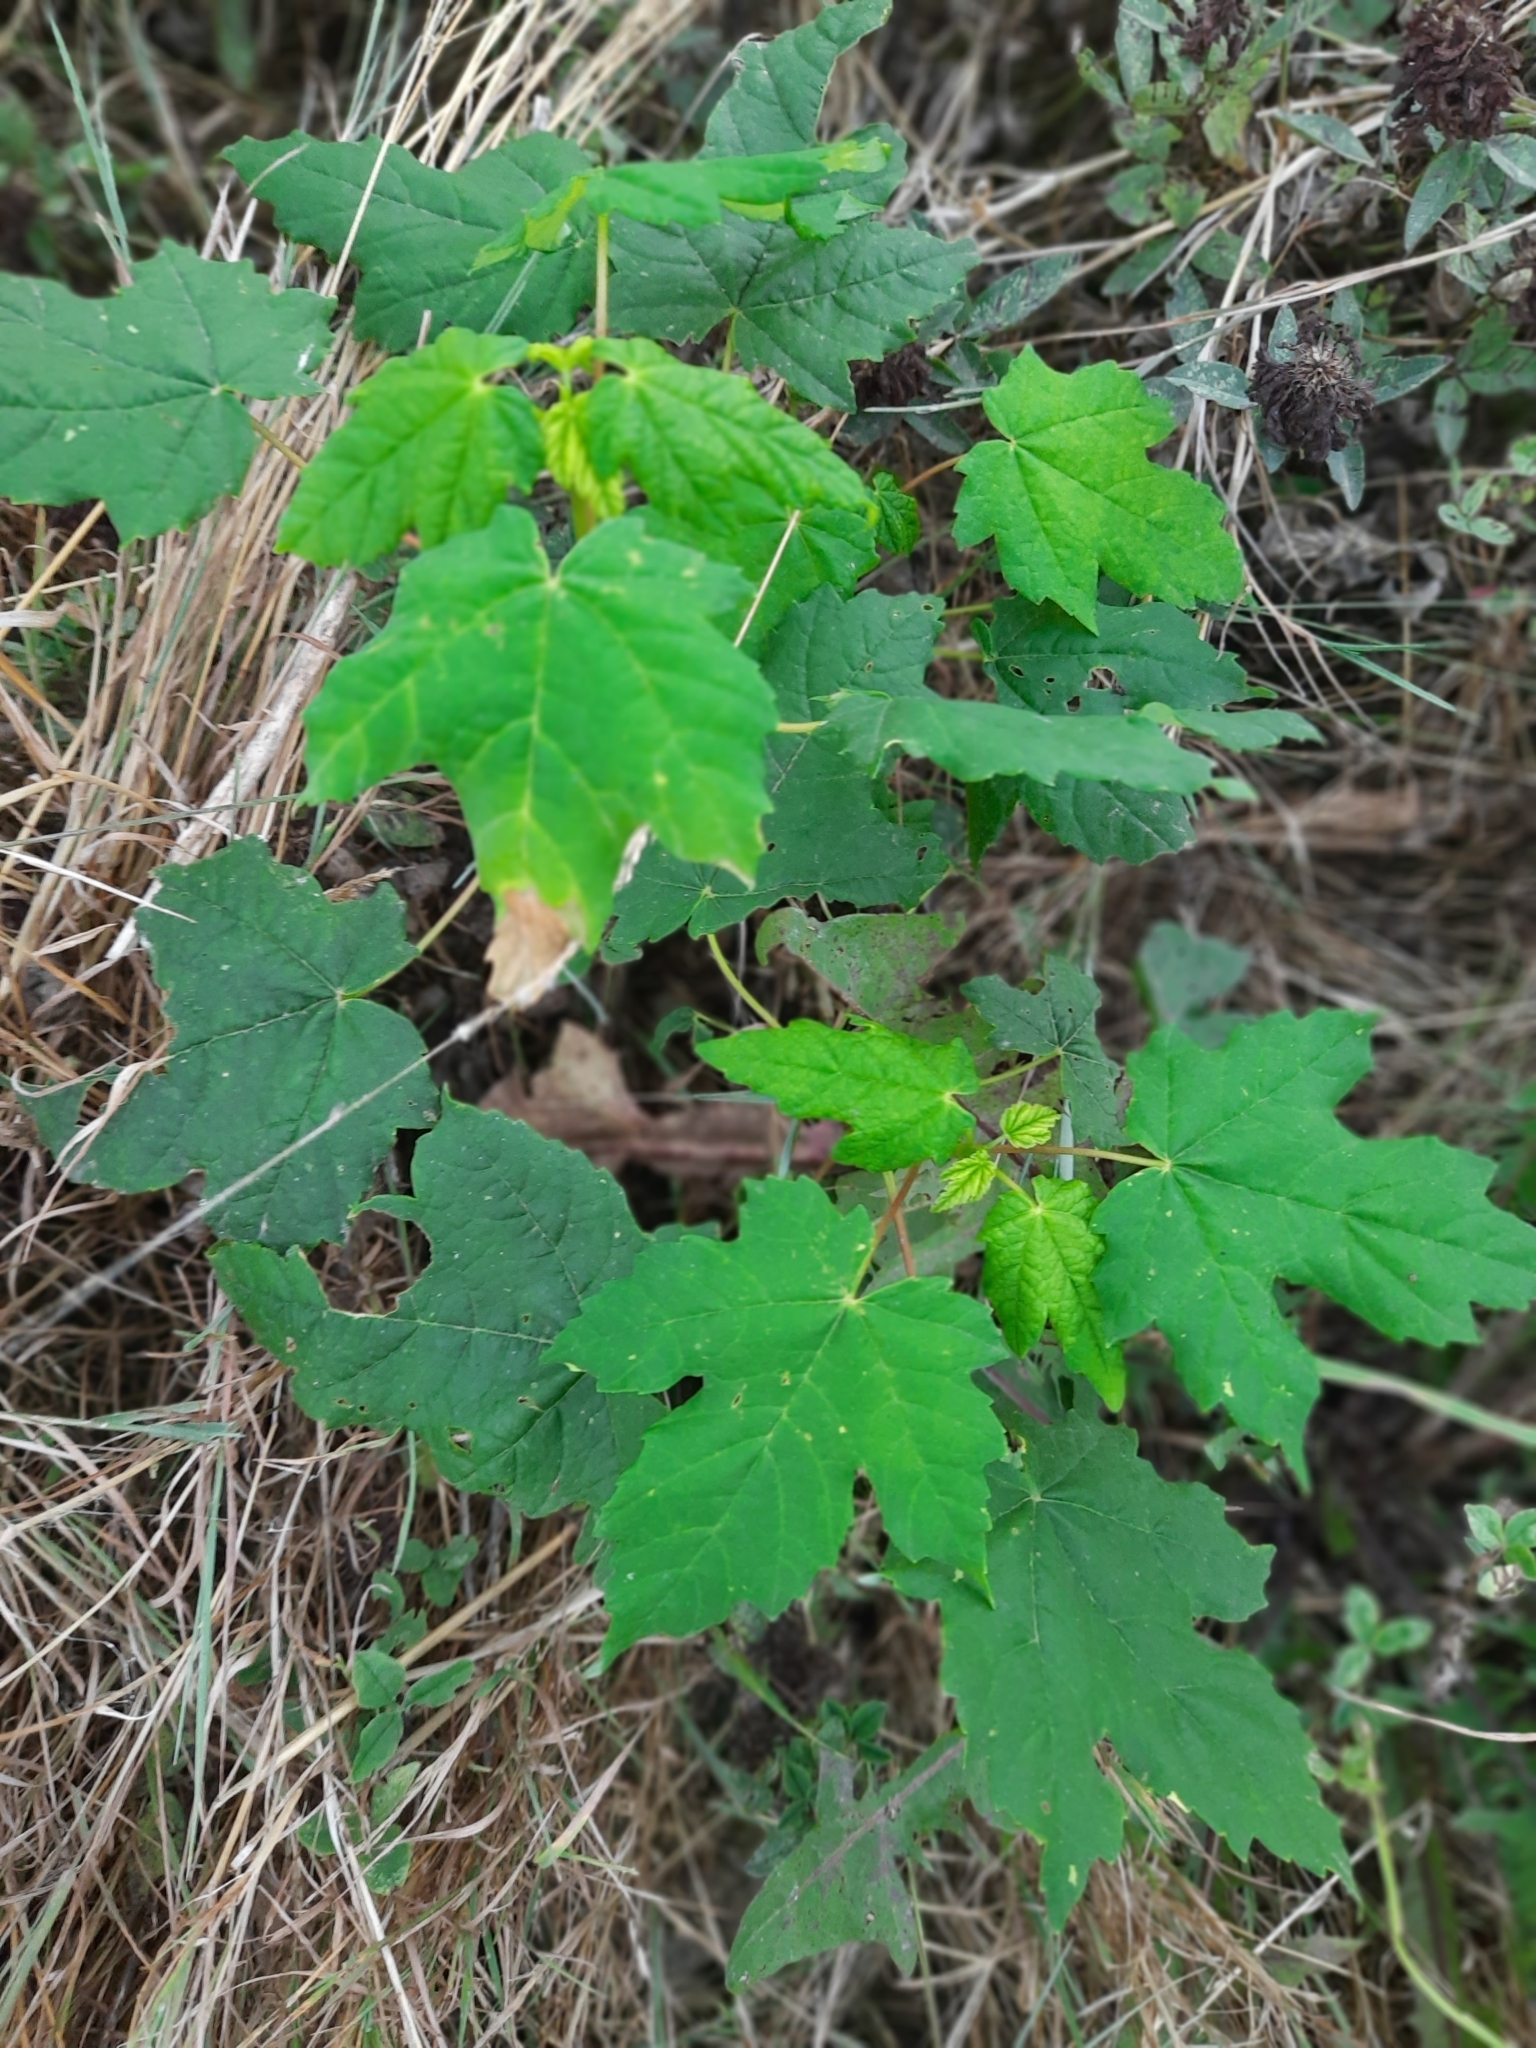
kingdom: Plantae
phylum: Tracheophyta
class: Magnoliopsida
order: Sapindales
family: Sapindaceae
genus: Acer
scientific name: Acer pseudoplatanus
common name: Sycamore
